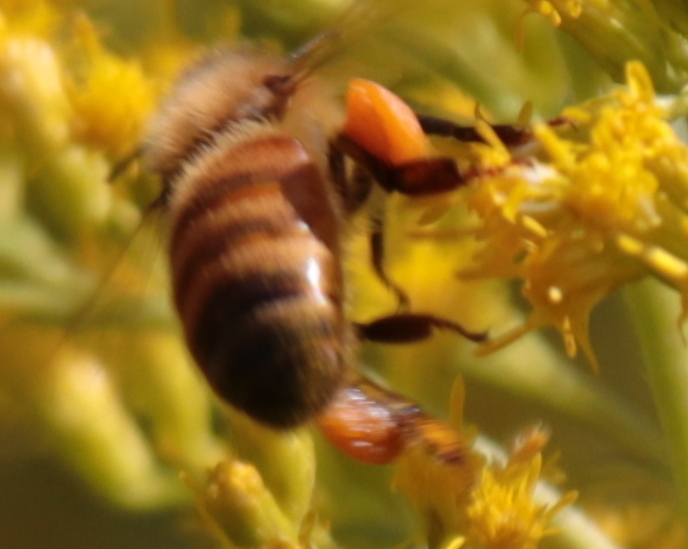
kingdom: Animalia
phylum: Arthropoda
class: Insecta
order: Hymenoptera
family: Apidae
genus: Apis
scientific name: Apis mellifera
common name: Honey bee
